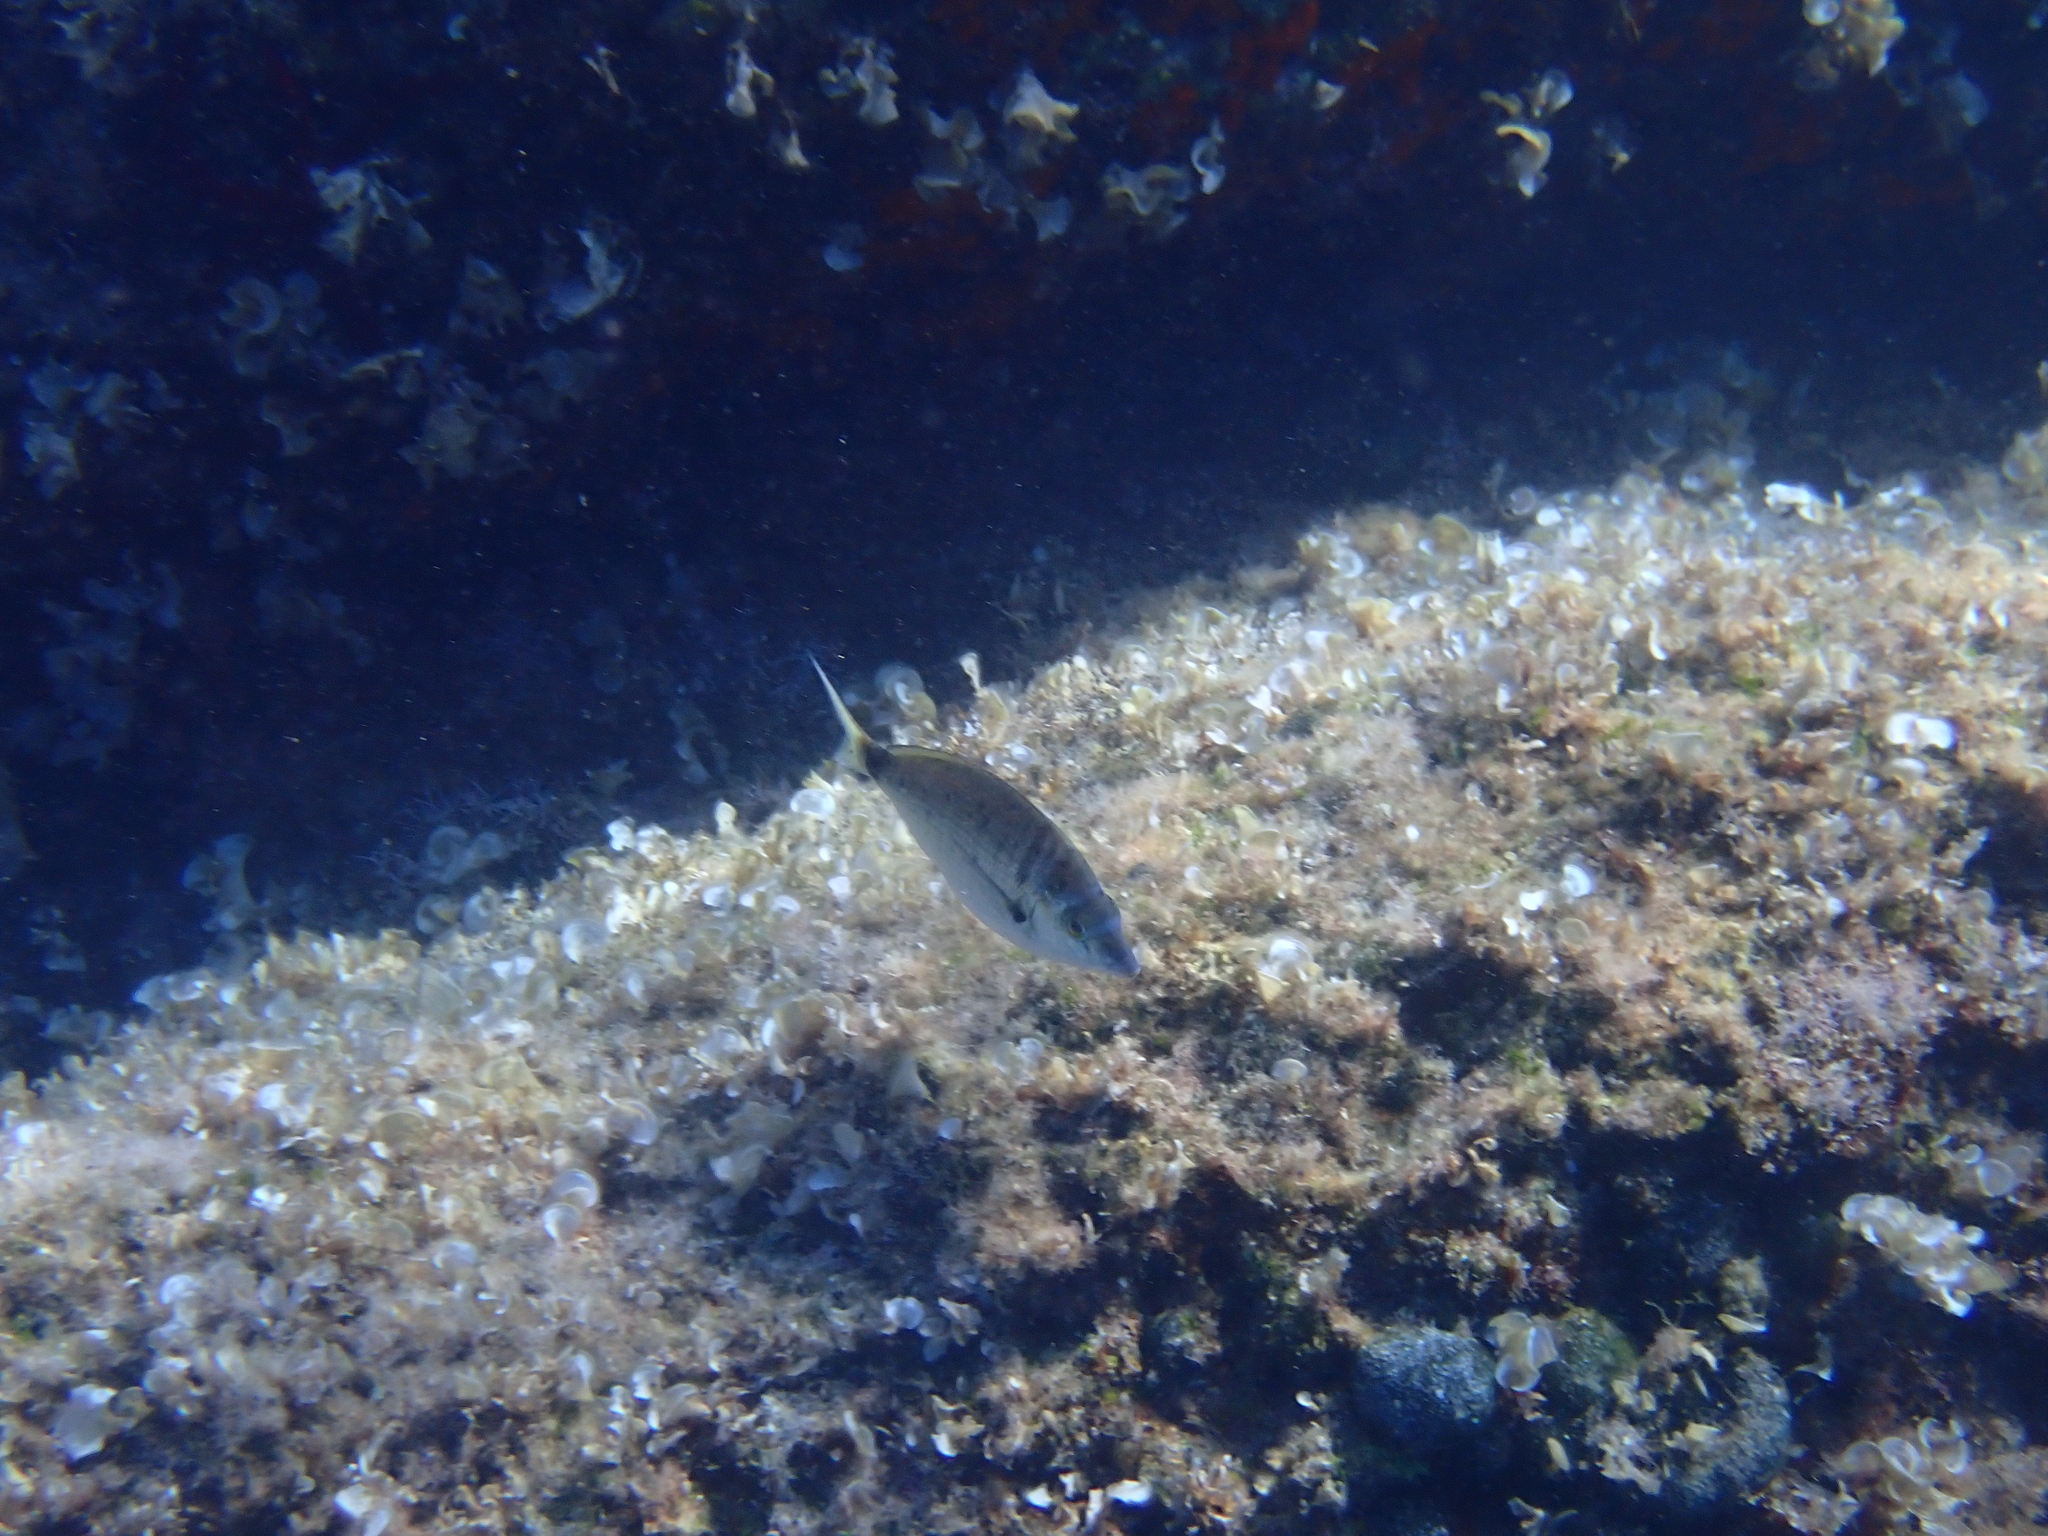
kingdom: Animalia
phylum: Chordata
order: Perciformes
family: Sparidae
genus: Diplodus
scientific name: Diplodus puntazzo
